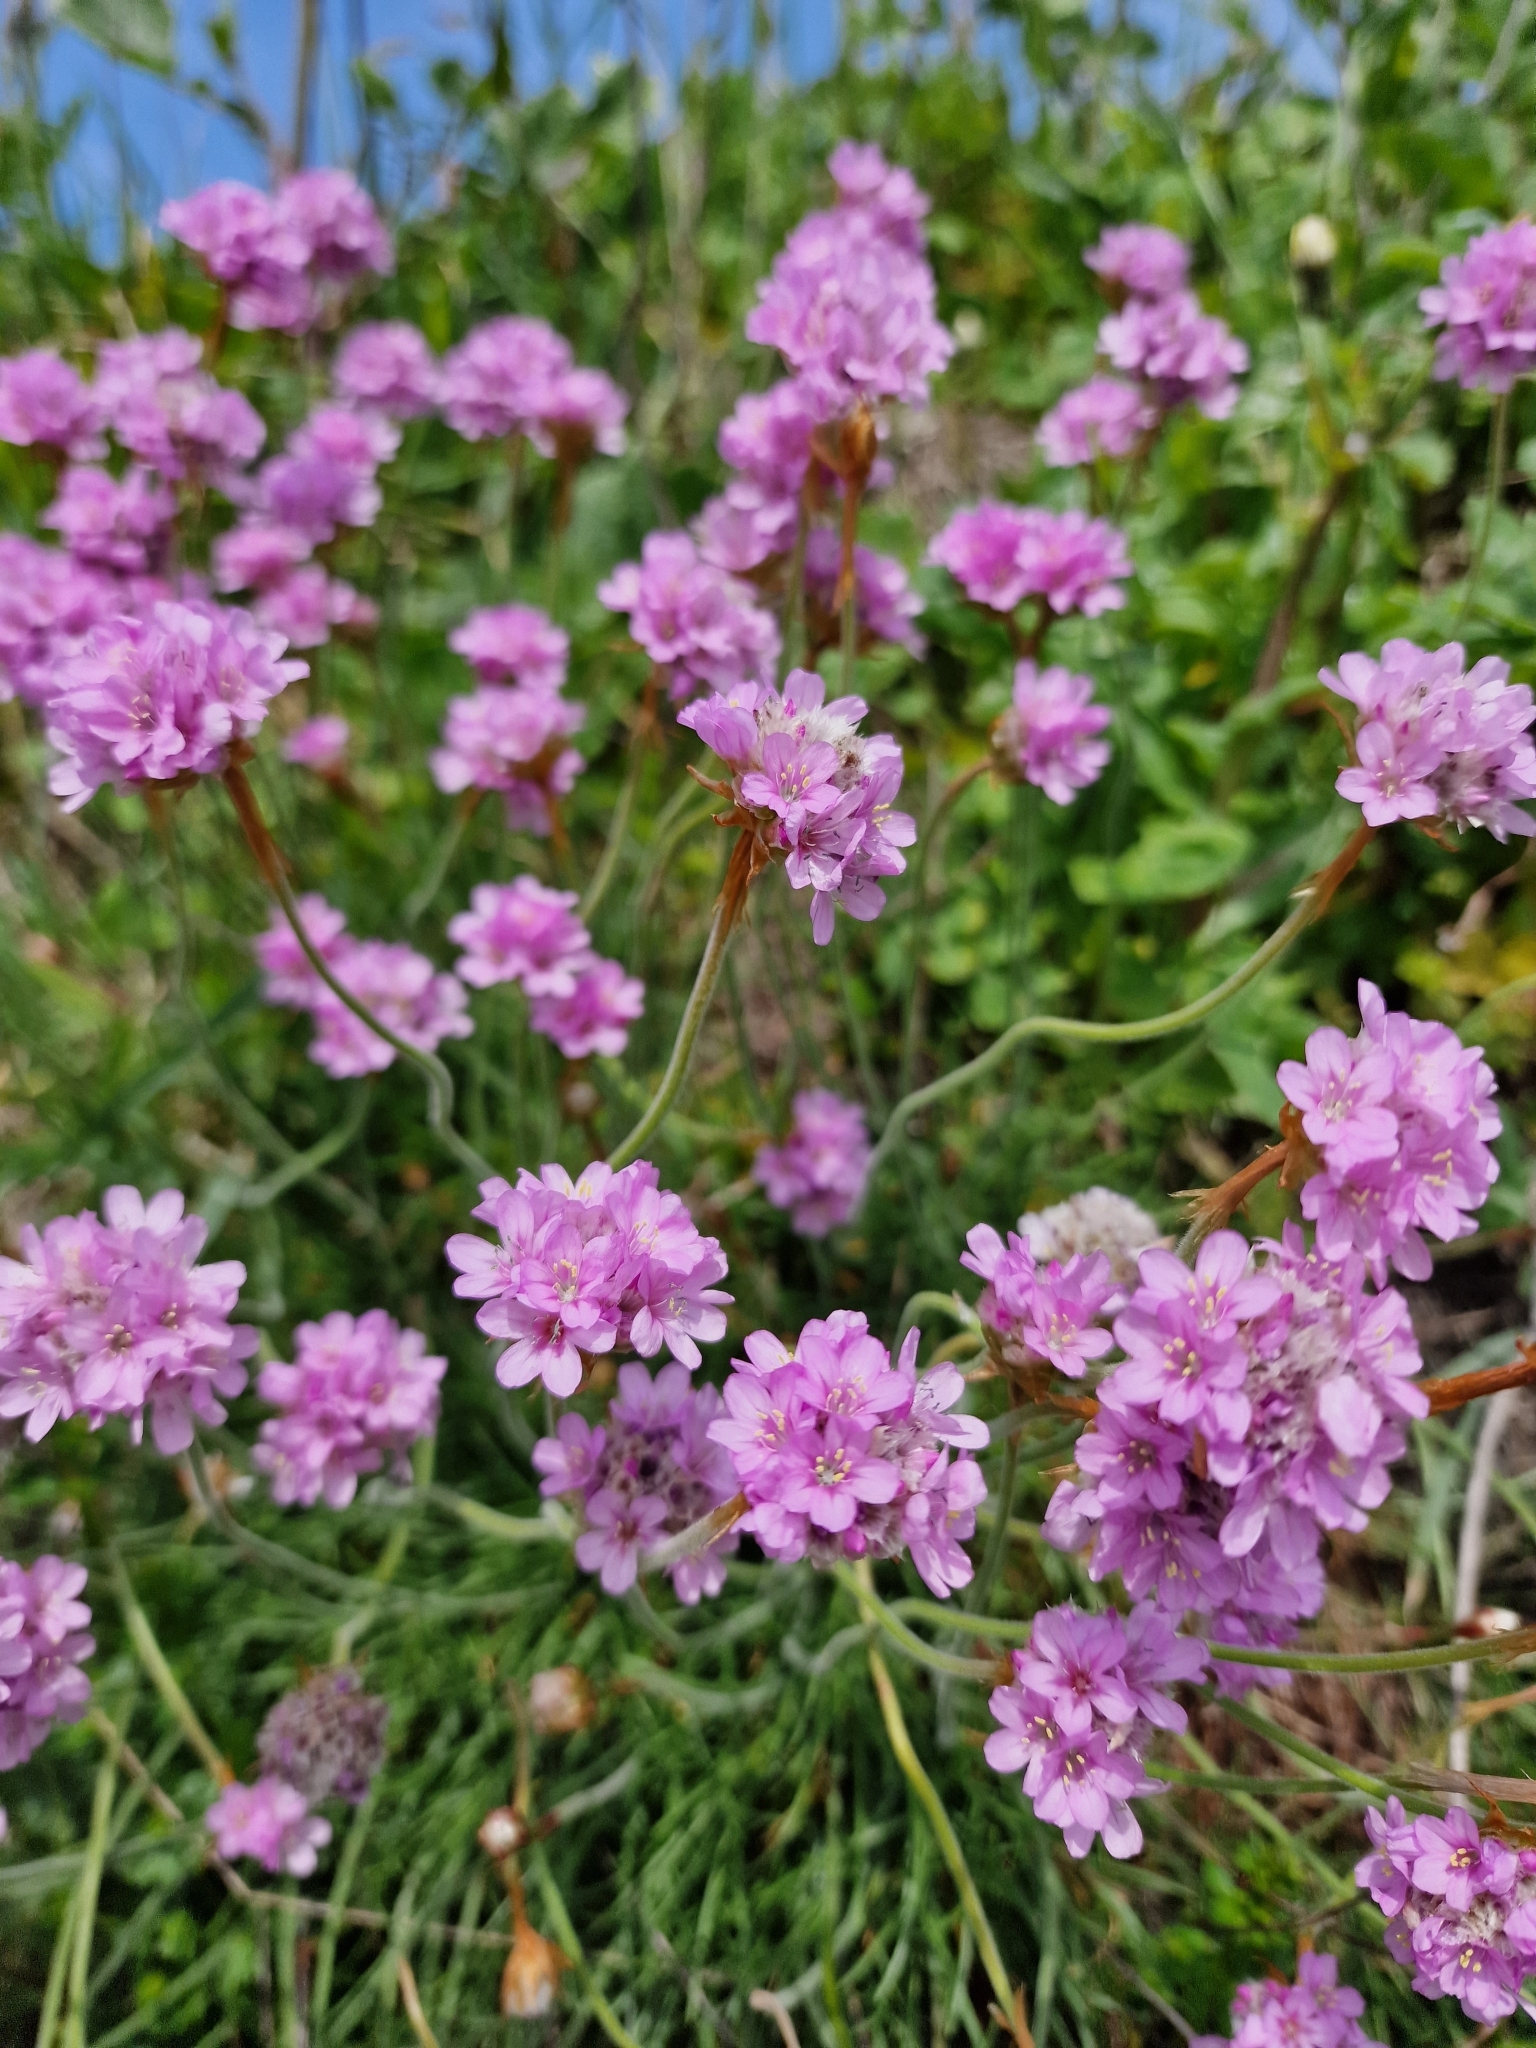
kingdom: Plantae
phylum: Tracheophyta
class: Magnoliopsida
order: Caryophyllales
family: Plumbaginaceae
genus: Armeria
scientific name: Armeria maritima
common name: Thrift
